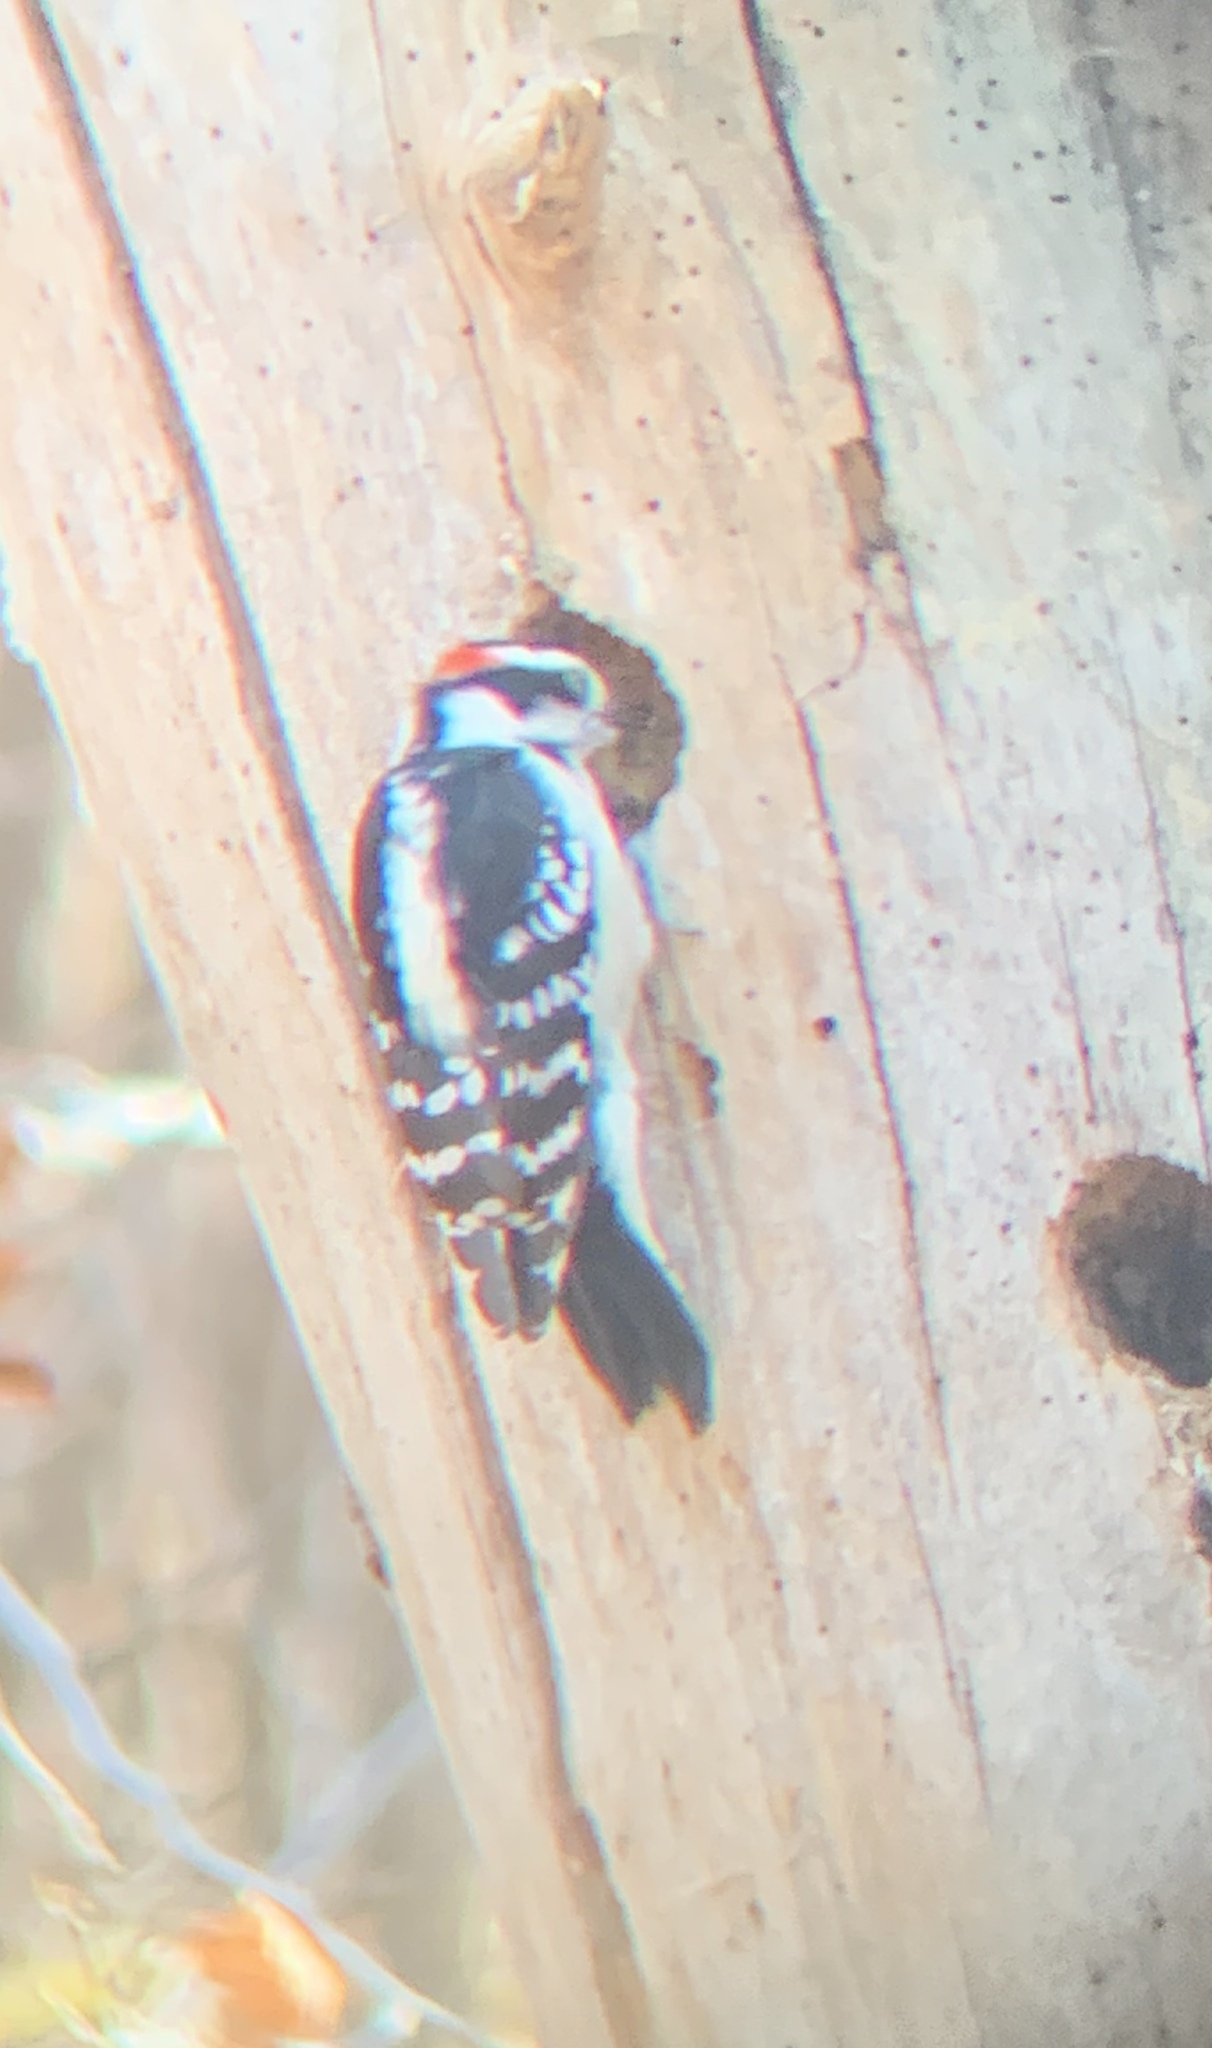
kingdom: Animalia
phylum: Chordata
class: Aves
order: Piciformes
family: Picidae
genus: Dryobates
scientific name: Dryobates pubescens
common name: Downy woodpecker
